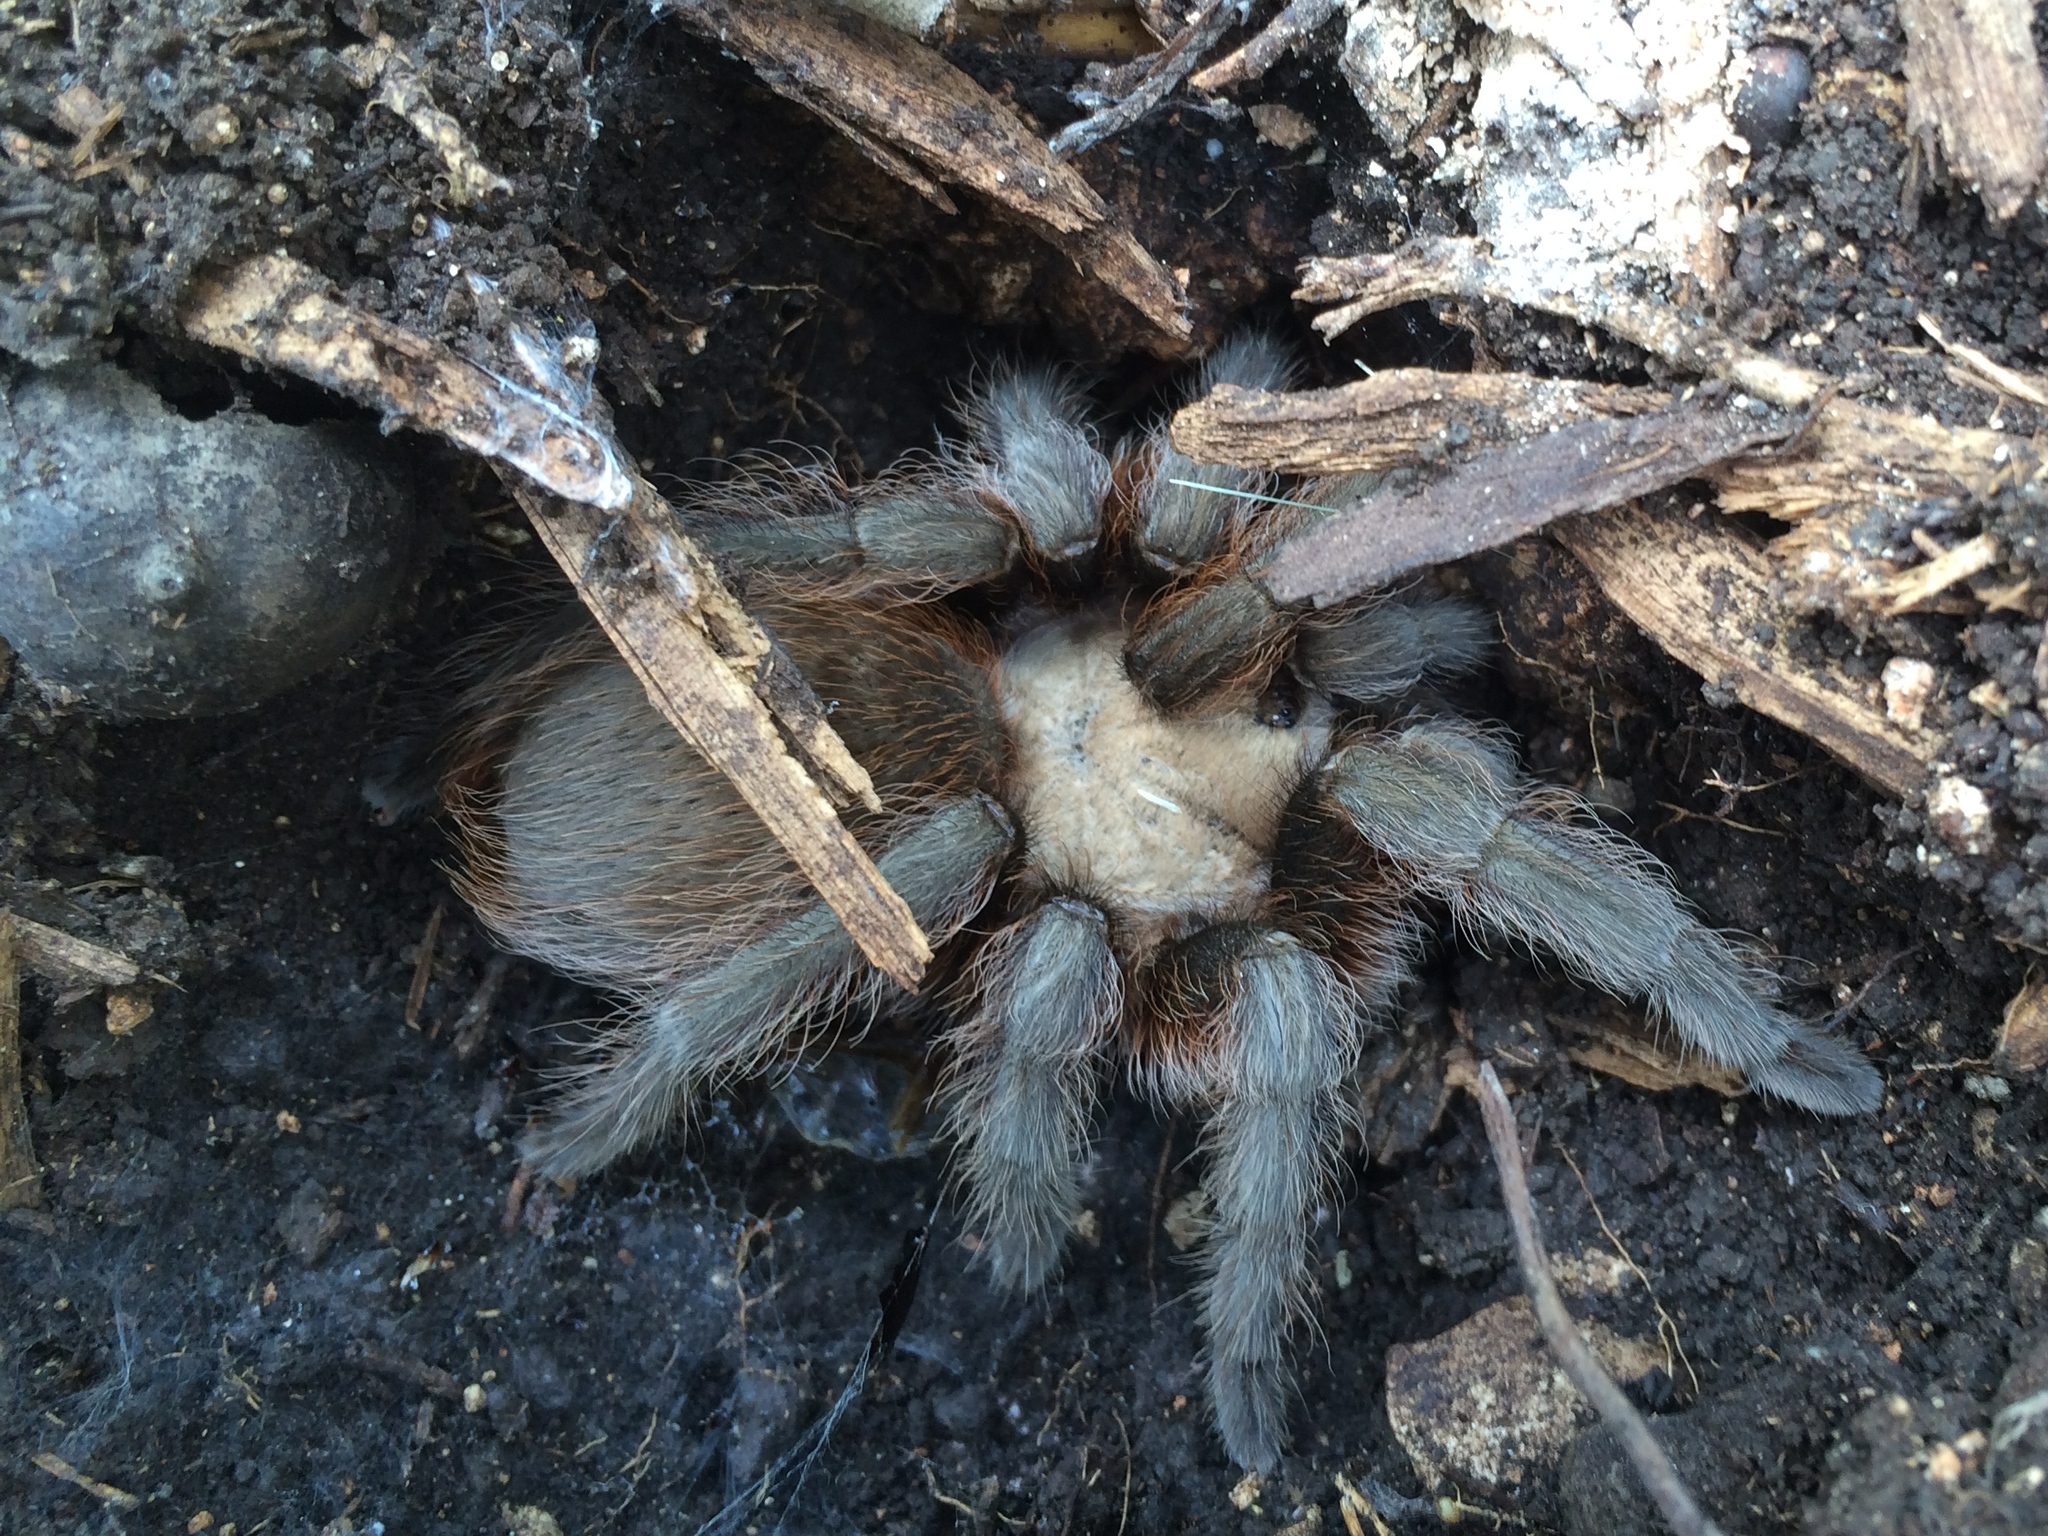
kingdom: Animalia
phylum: Arthropoda
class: Arachnida
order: Araneae
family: Theraphosidae
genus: Aphonopelma
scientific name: Aphonopelma hentzi
